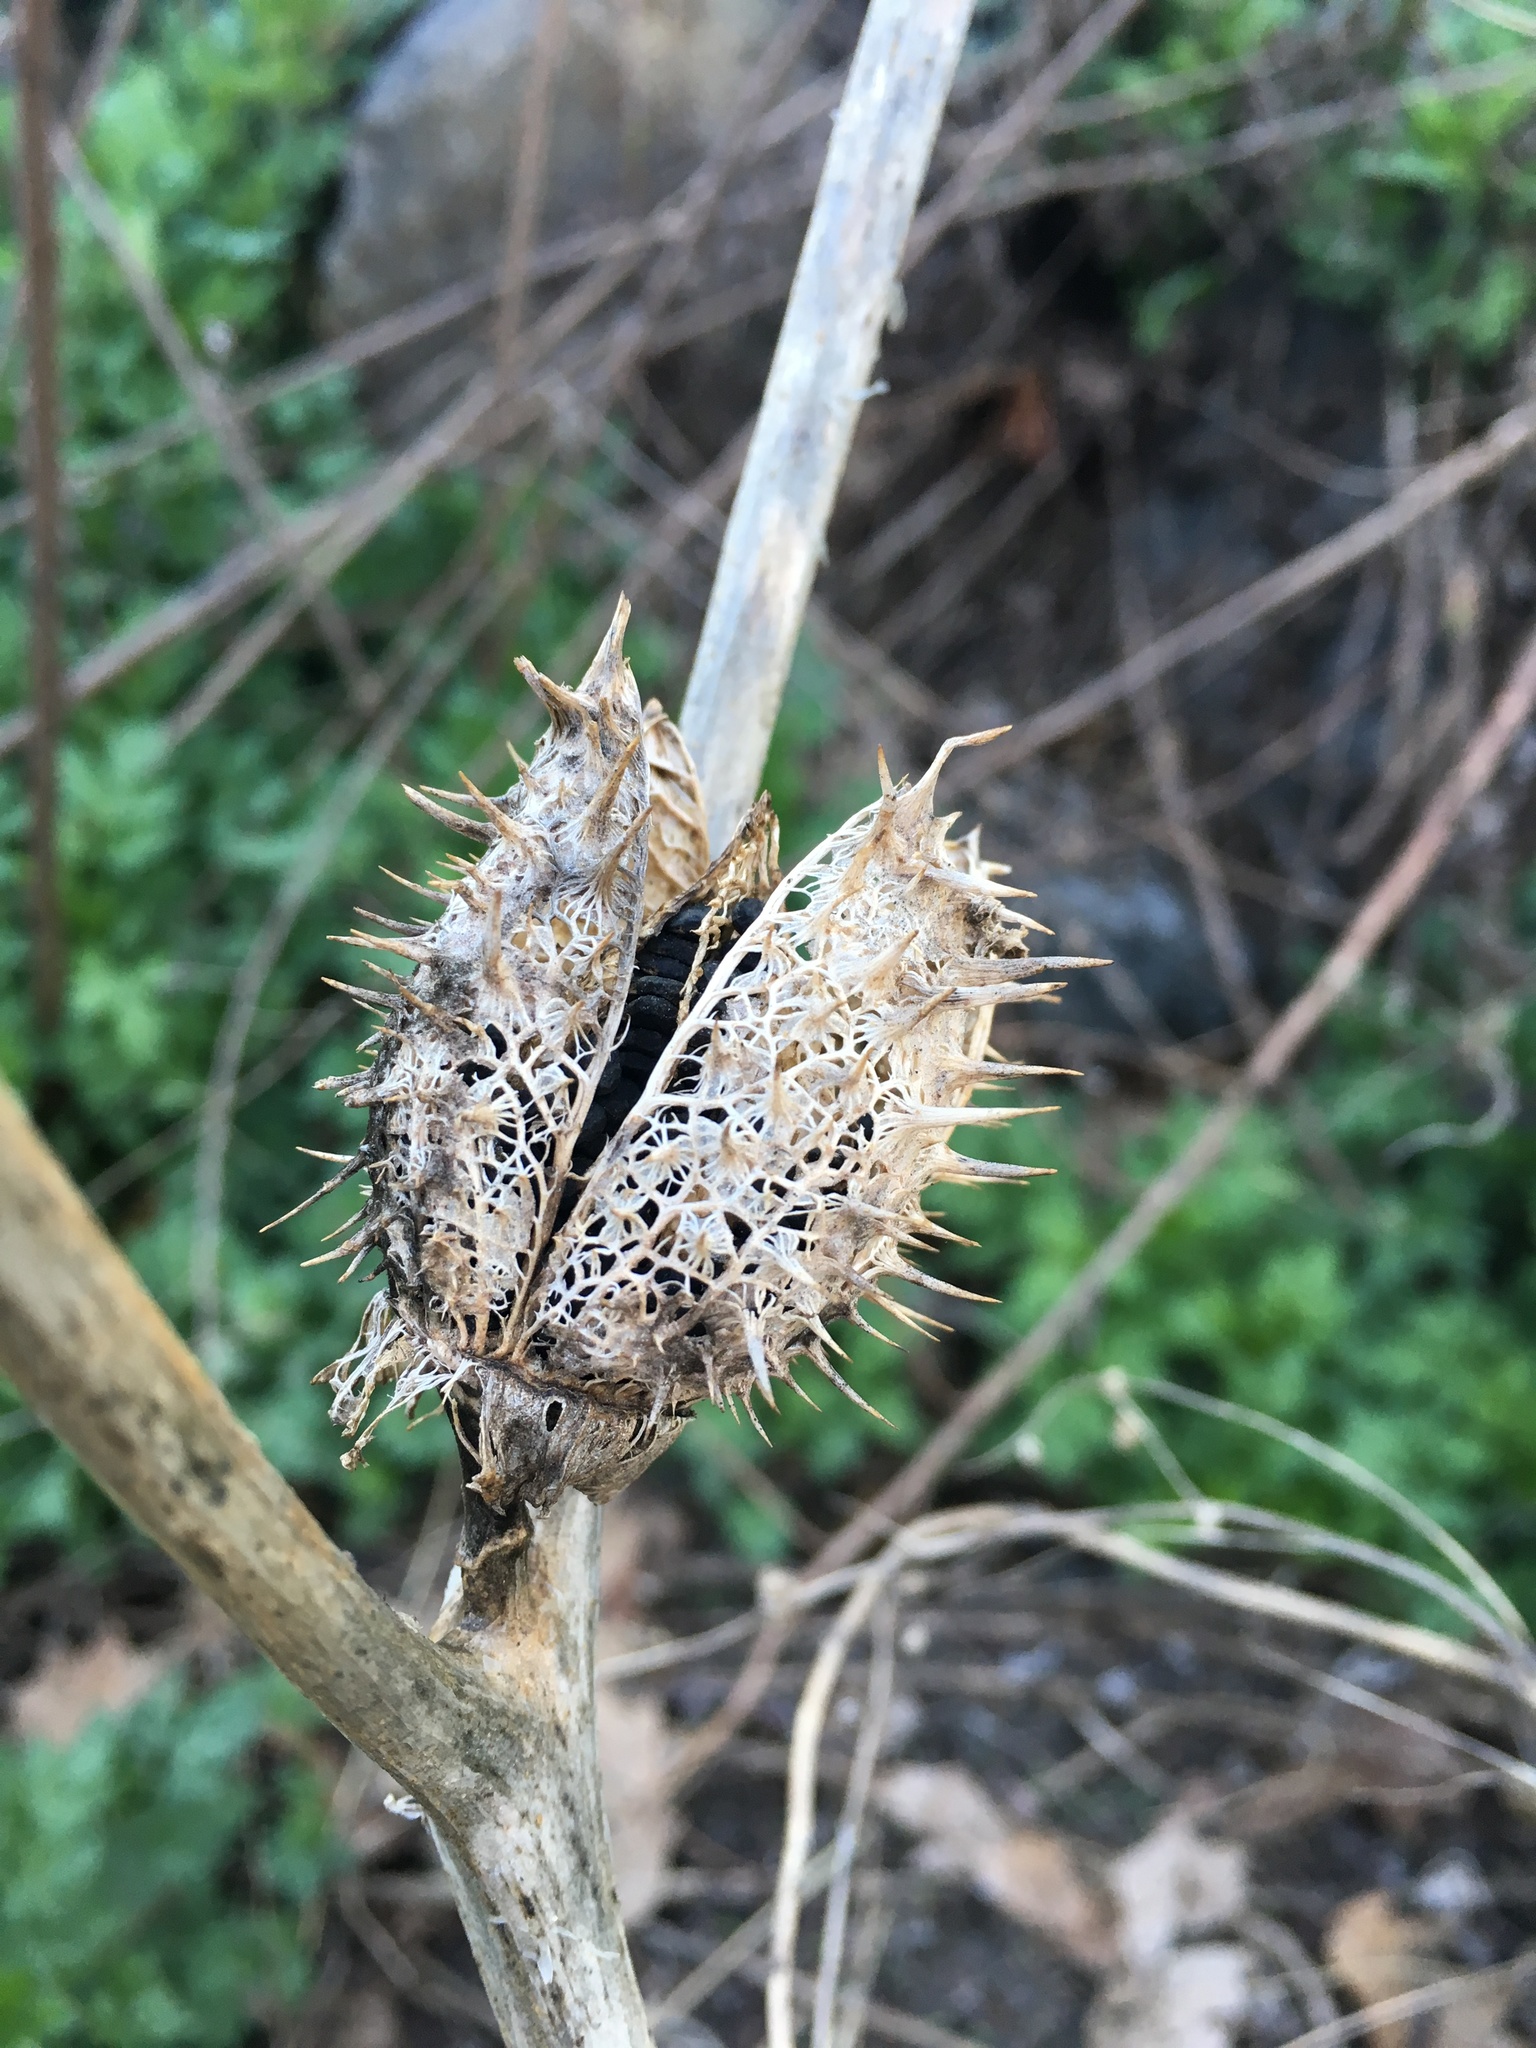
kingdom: Plantae
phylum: Tracheophyta
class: Magnoliopsida
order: Solanales
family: Solanaceae
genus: Datura
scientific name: Datura stramonium
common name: Thorn-apple
